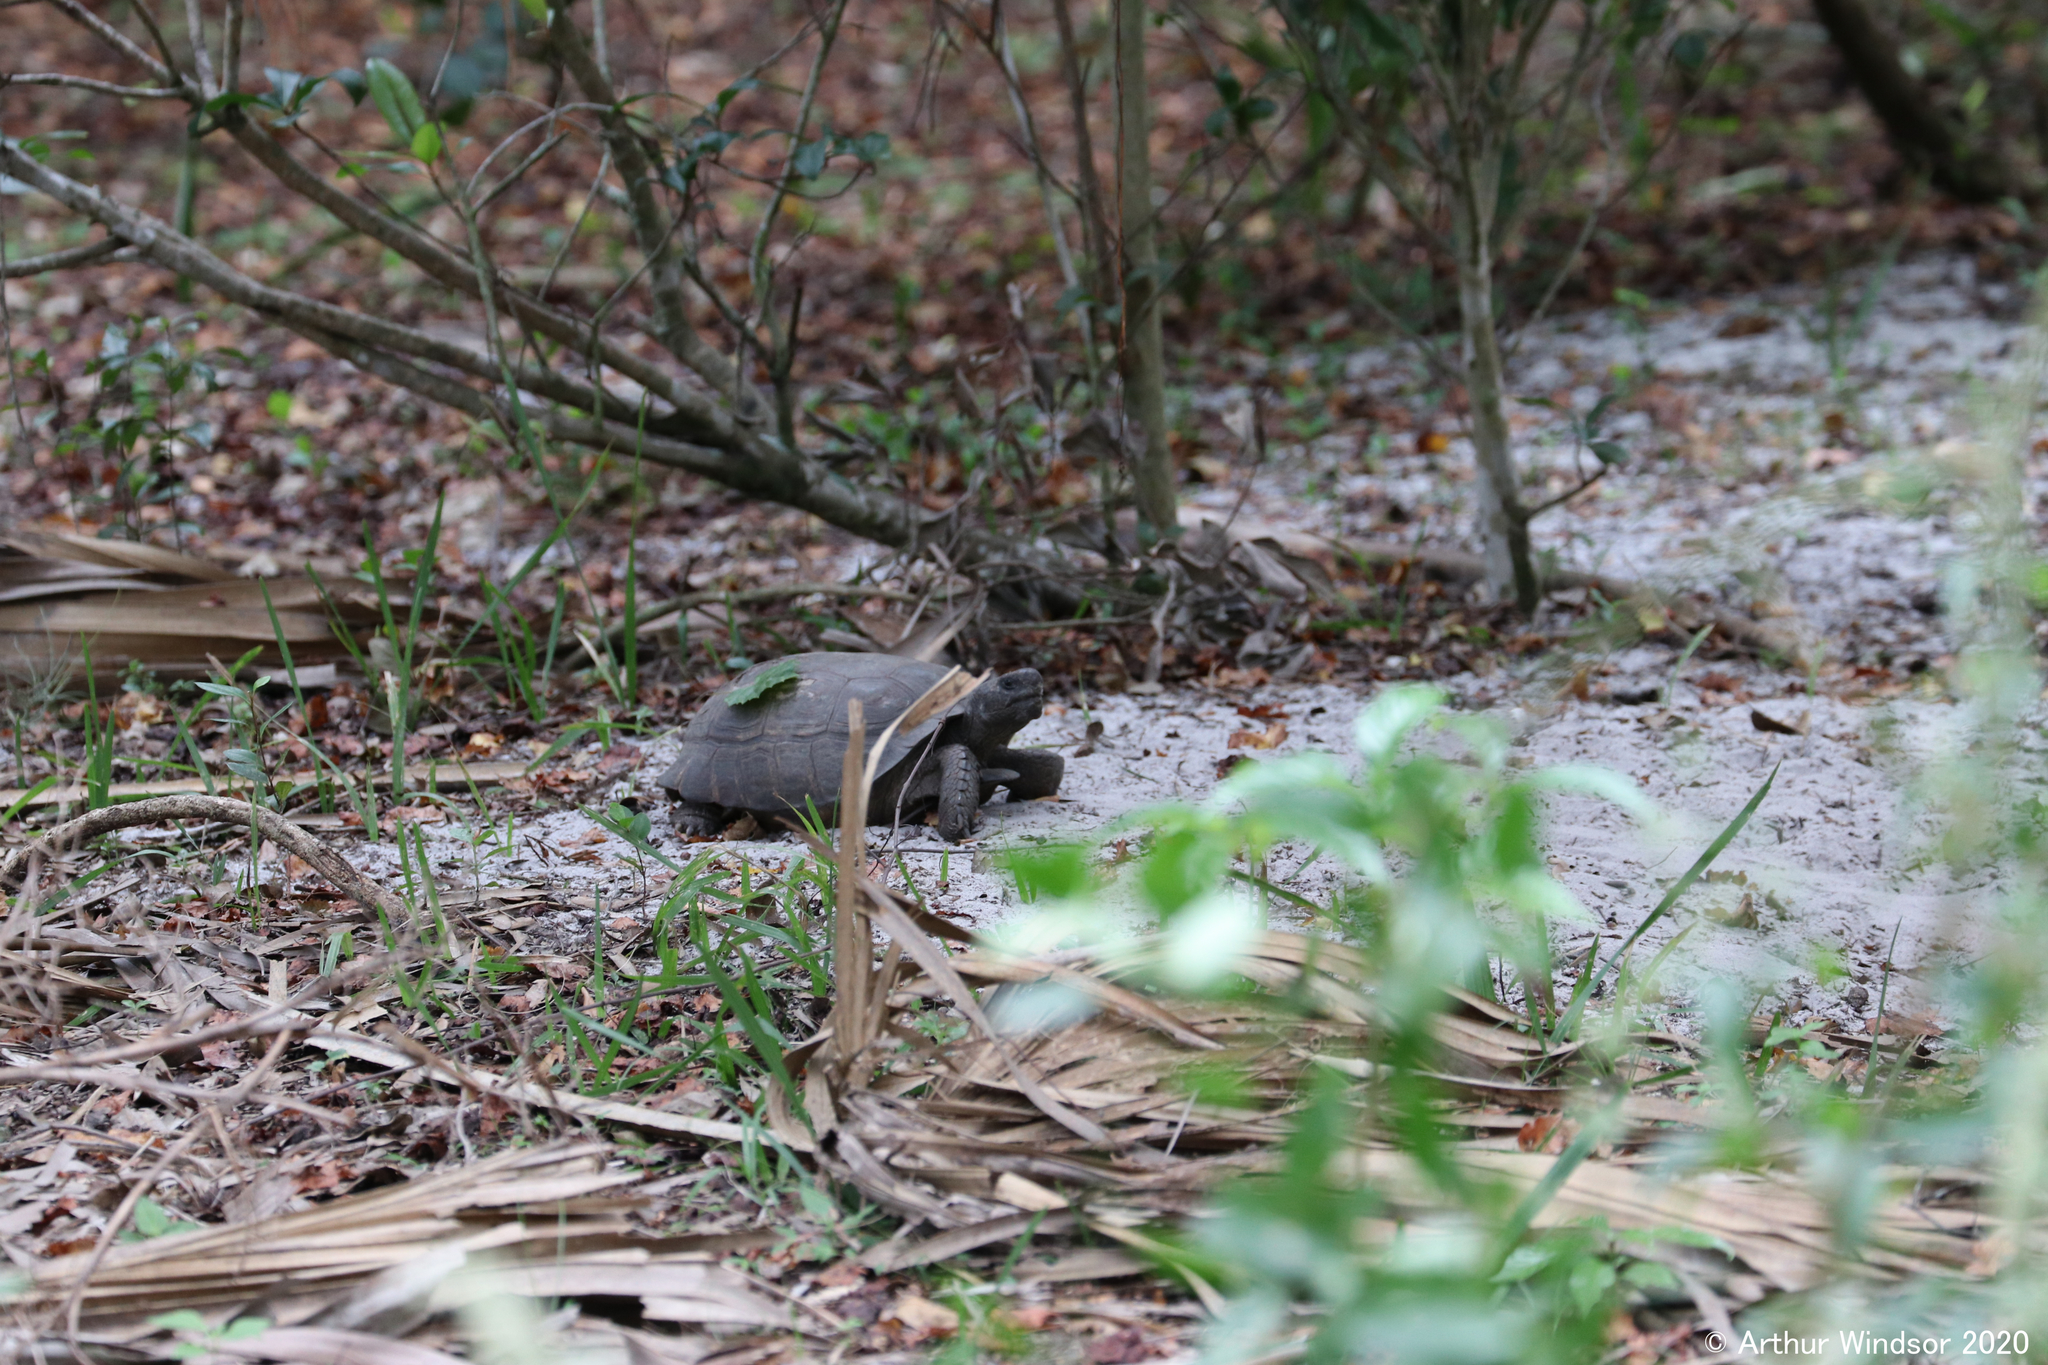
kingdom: Animalia
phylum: Chordata
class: Testudines
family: Testudinidae
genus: Gopherus
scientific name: Gopherus polyphemus
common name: Florida gopher tortoise
